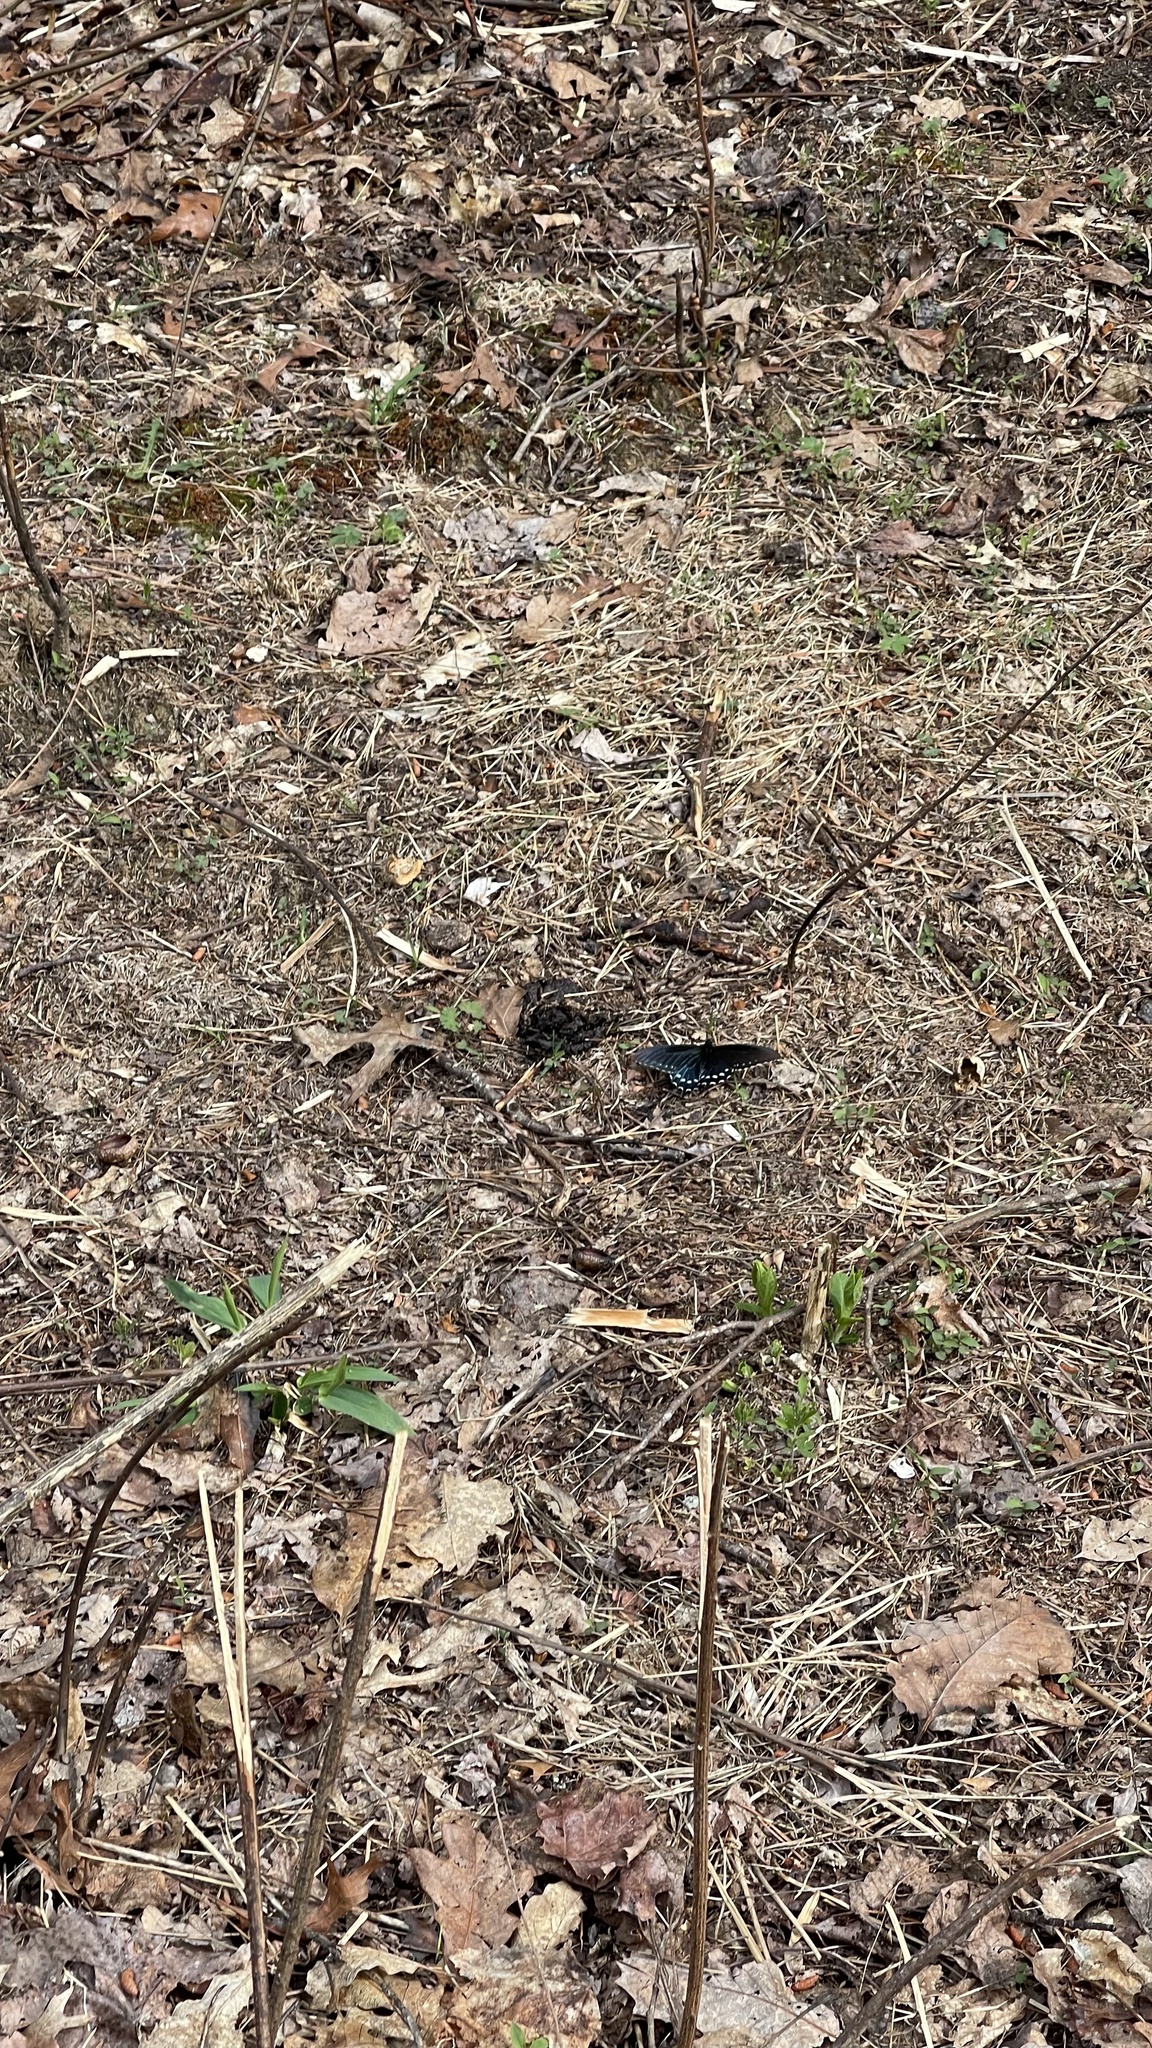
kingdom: Animalia
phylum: Arthropoda
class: Insecta
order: Lepidoptera
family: Papilionidae
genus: Battus
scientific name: Battus philenor
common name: Pipevine swallowtail
